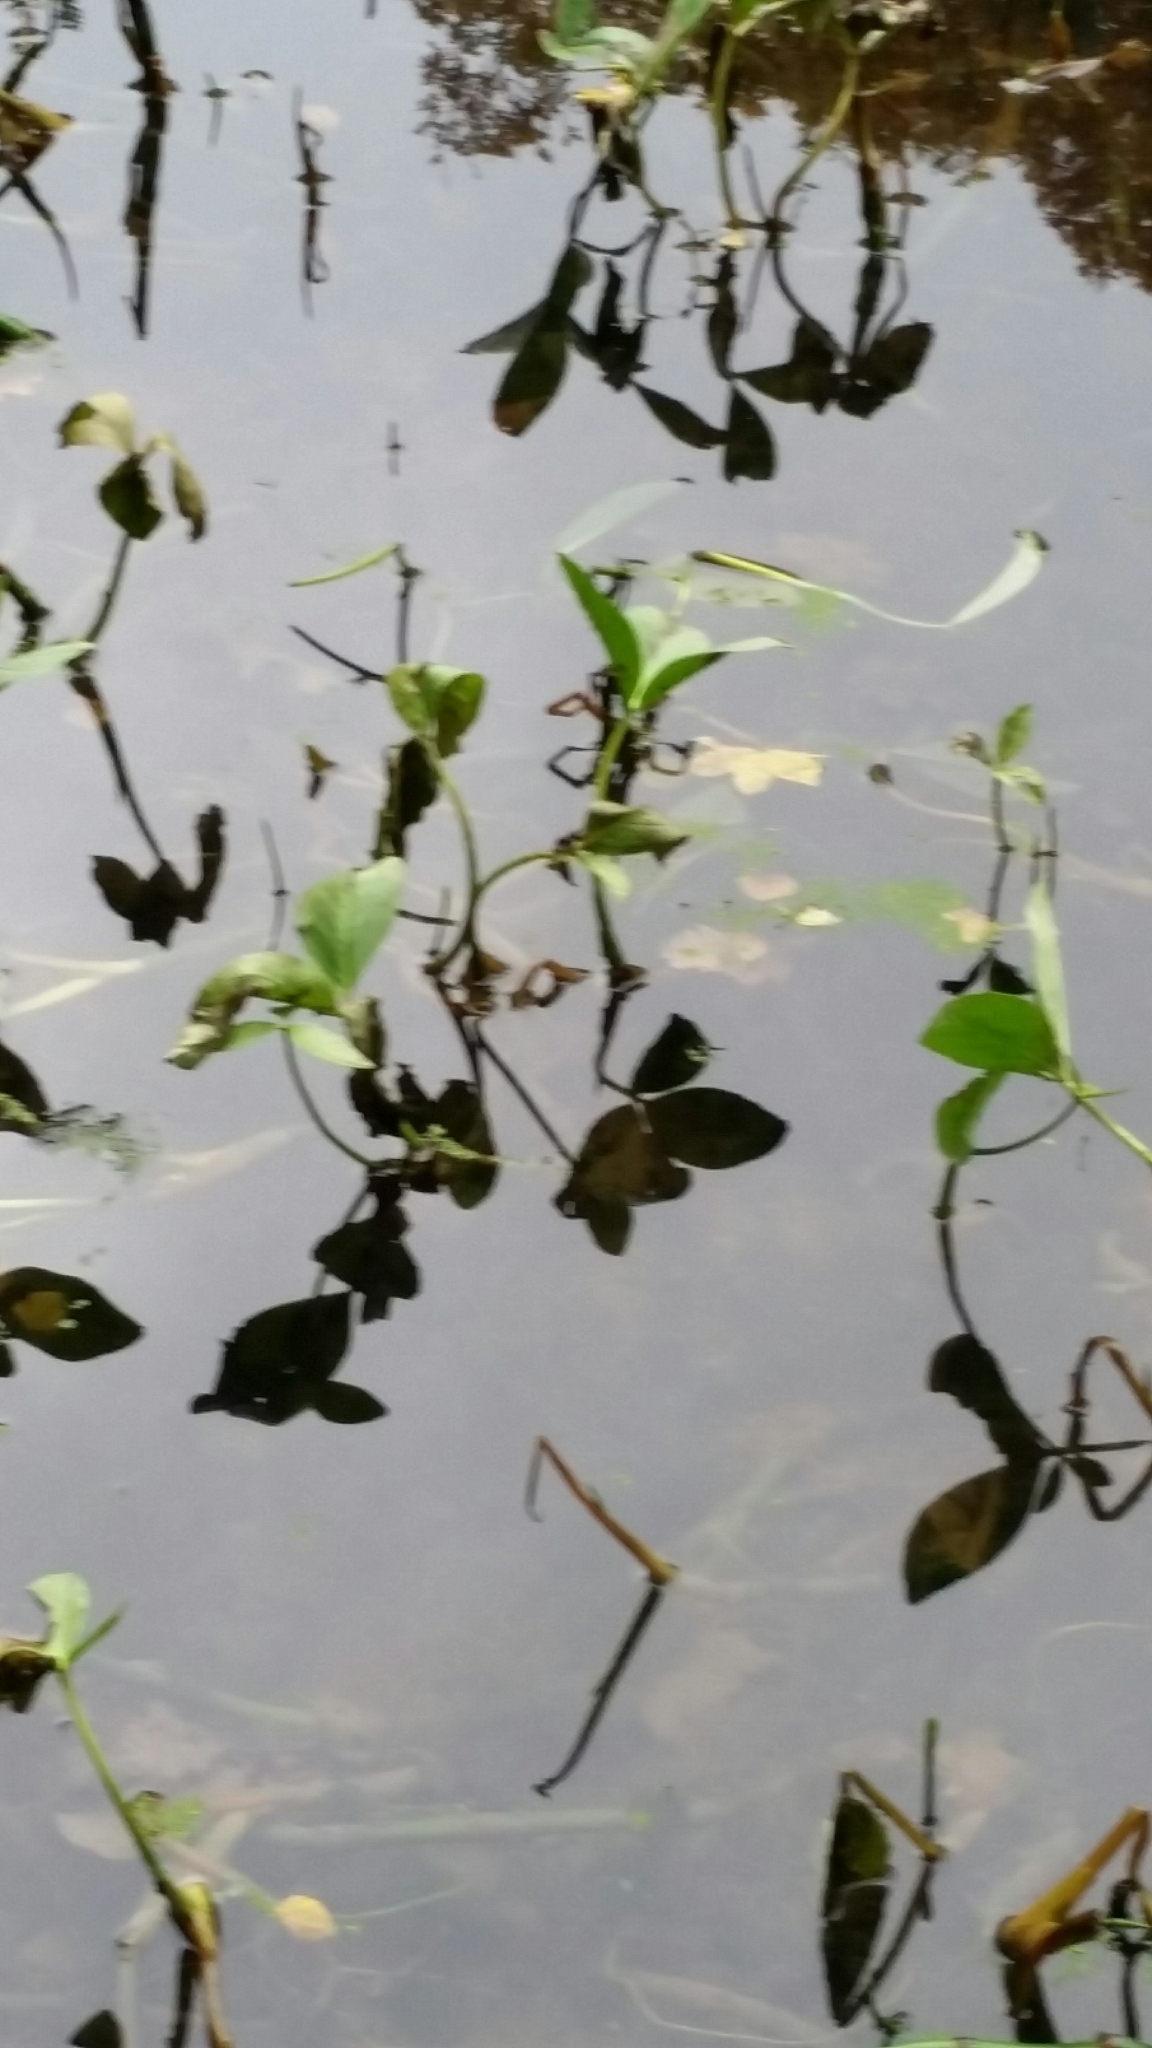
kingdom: Plantae
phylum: Tracheophyta
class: Magnoliopsida
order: Asterales
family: Menyanthaceae
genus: Menyanthes
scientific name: Menyanthes trifoliata
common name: Bogbean
